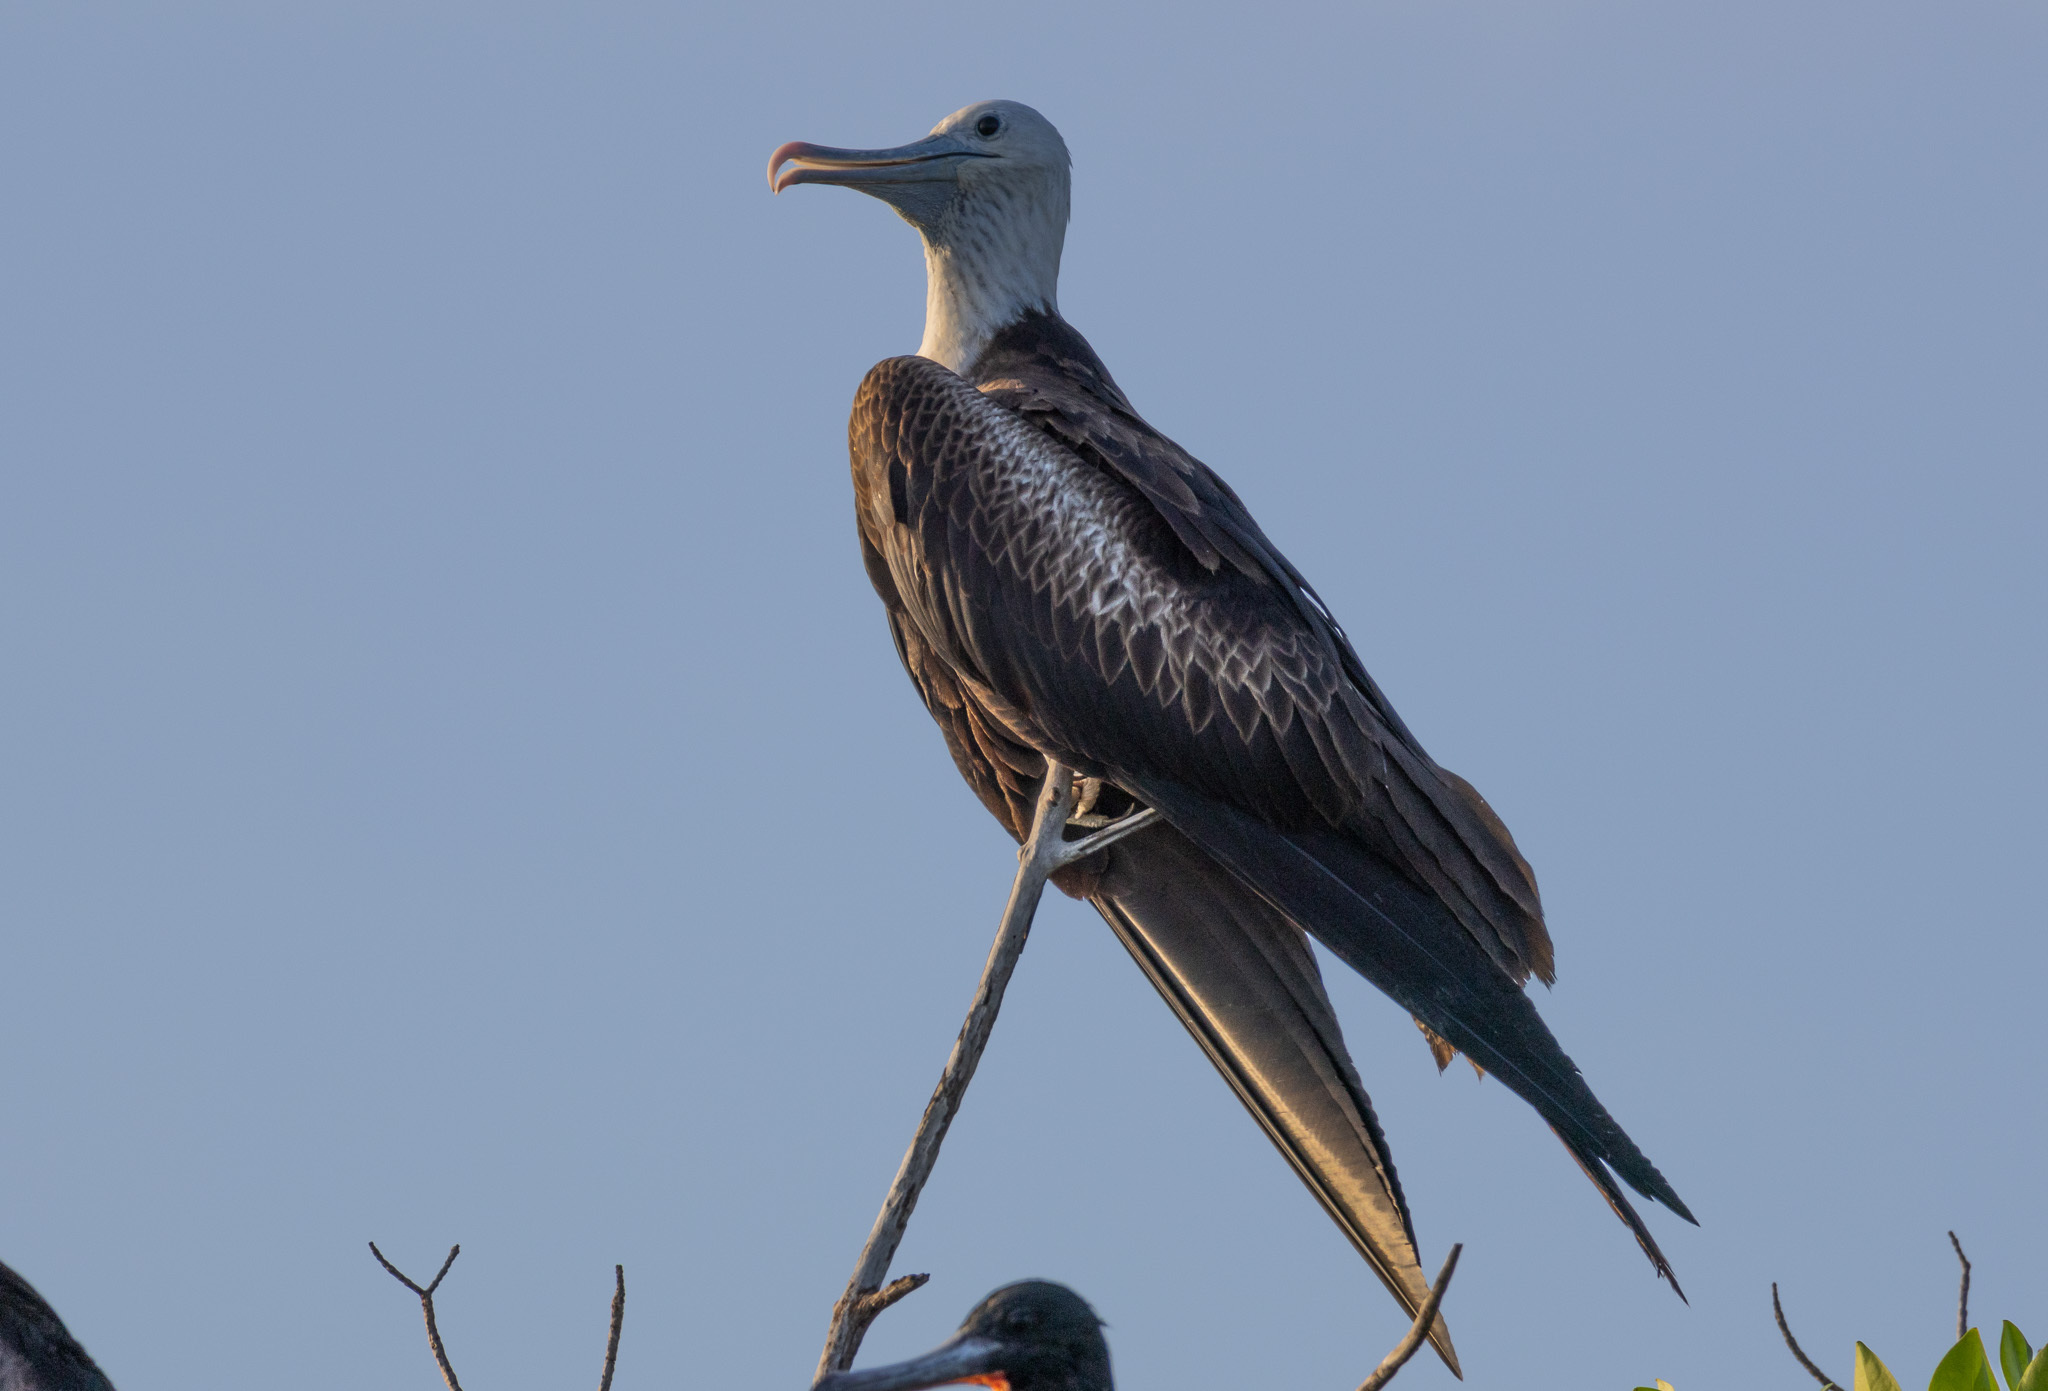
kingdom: Animalia
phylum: Chordata
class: Aves
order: Suliformes
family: Fregatidae
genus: Fregata
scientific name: Fregata magnificens
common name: Magnificent frigatebird
